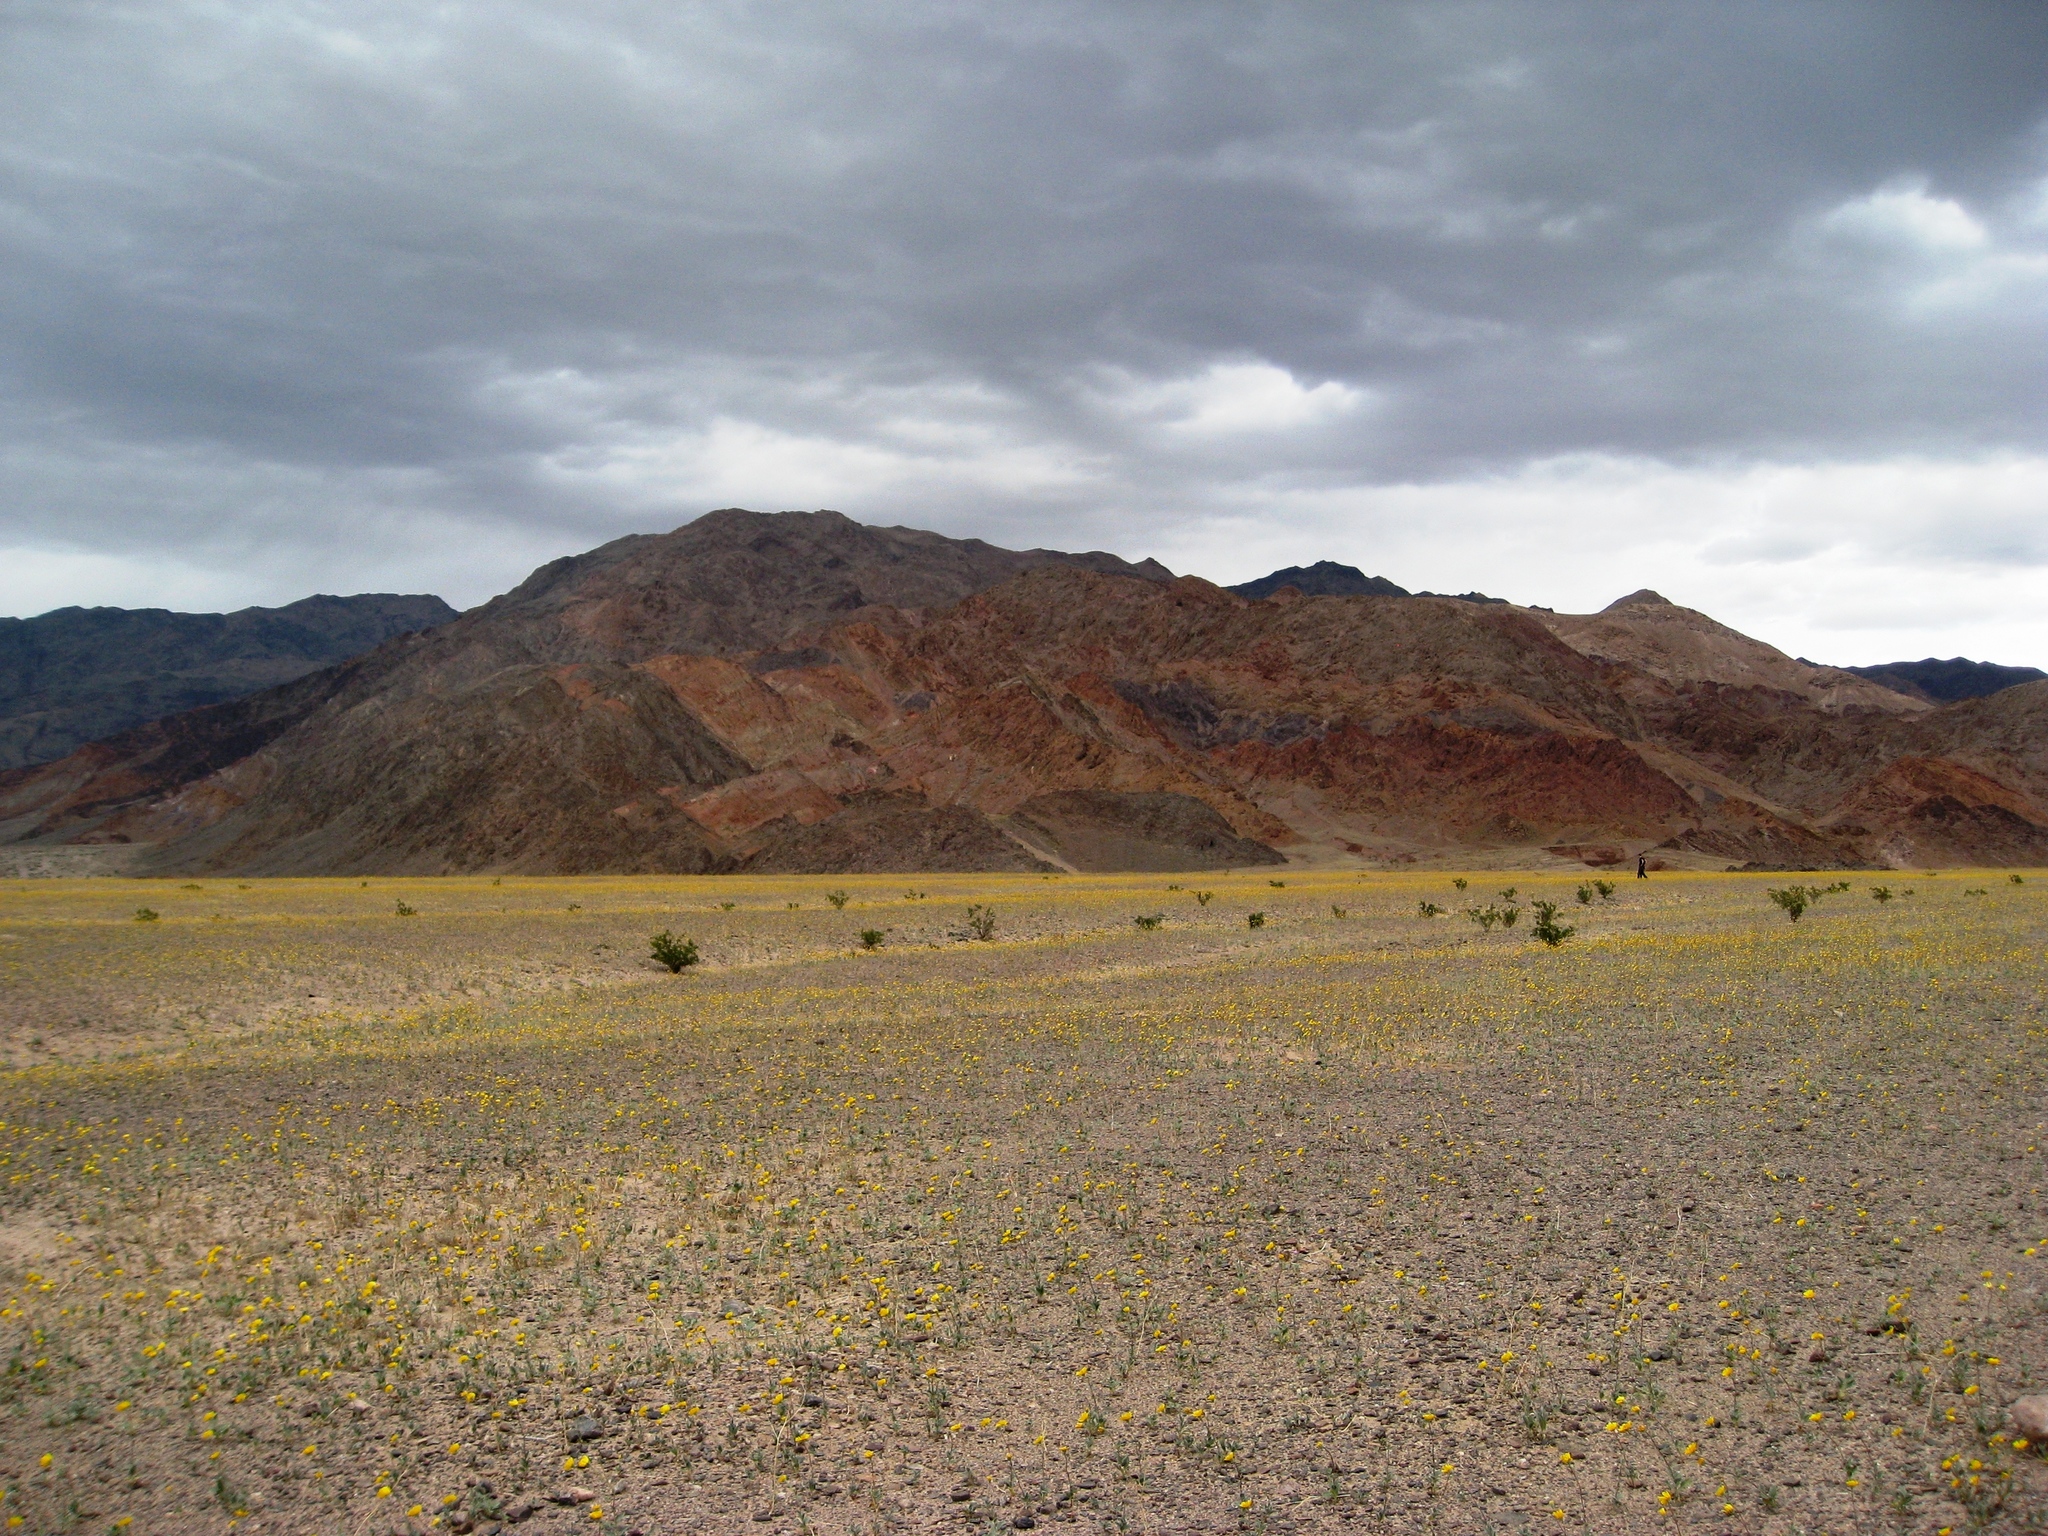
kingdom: Plantae
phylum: Tracheophyta
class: Magnoliopsida
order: Asterales
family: Asteraceae
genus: Geraea
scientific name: Geraea canescens
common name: Desert-gold
